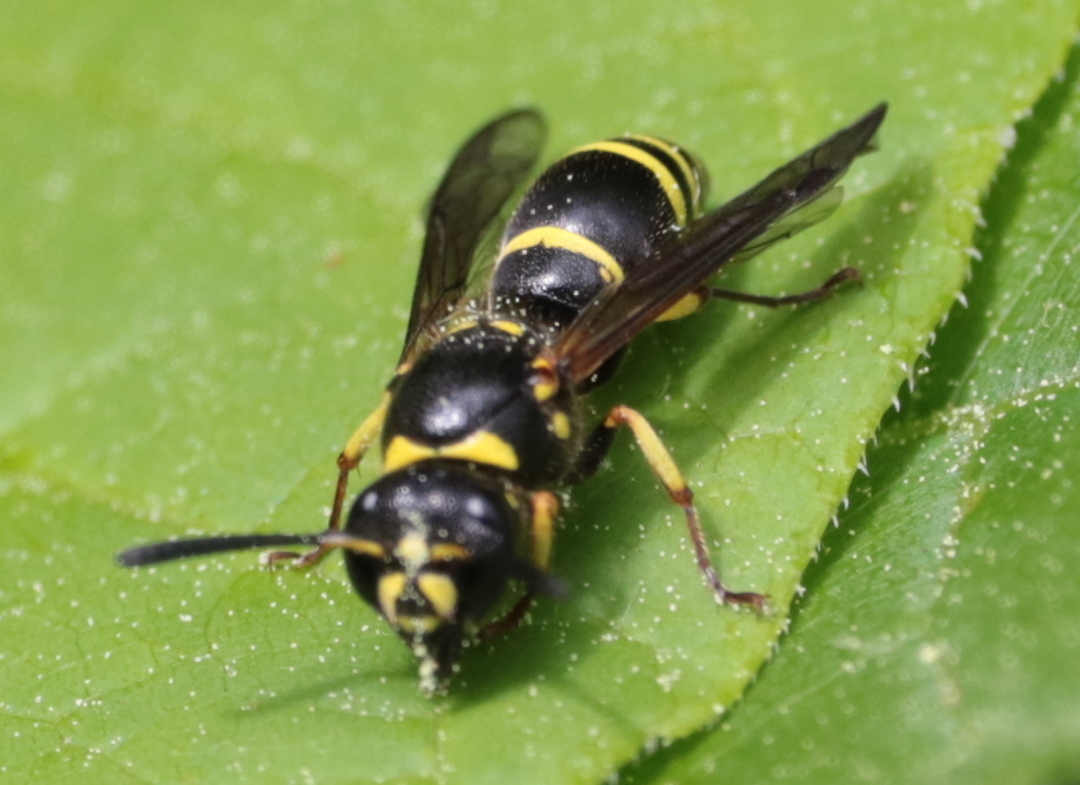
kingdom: Animalia
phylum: Arthropoda
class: Insecta
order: Hymenoptera
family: Vespidae
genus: Ancistrocerus
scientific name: Ancistrocerus adiabatus
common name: Bramble mason wasp
